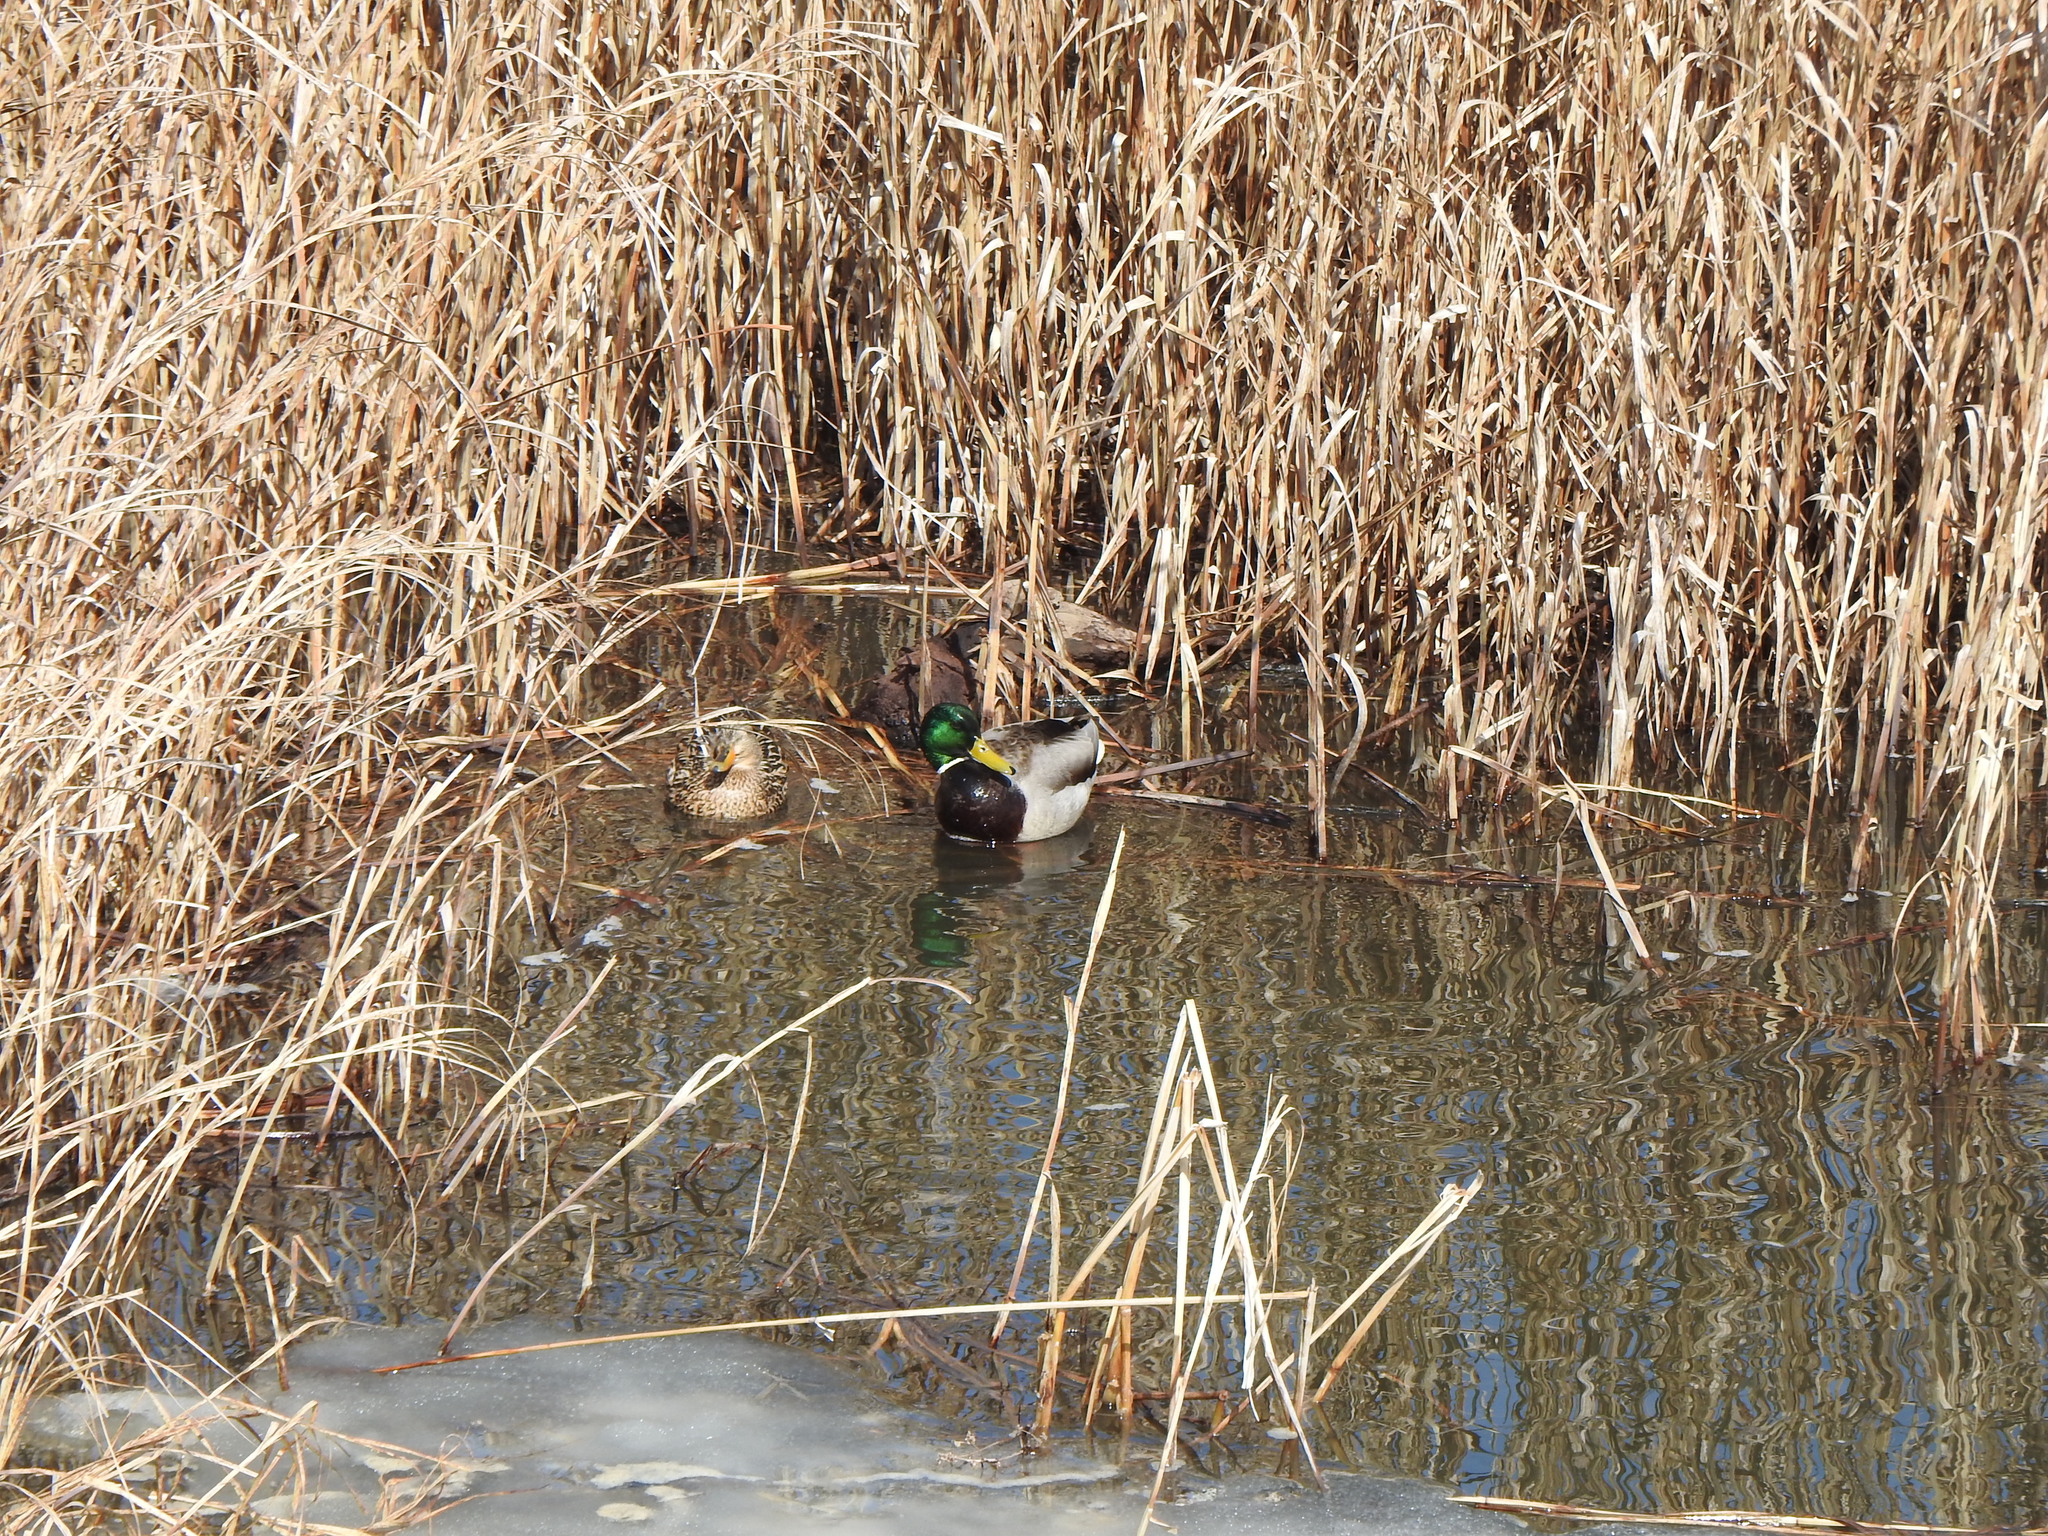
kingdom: Animalia
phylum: Chordata
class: Aves
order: Anseriformes
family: Anatidae
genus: Anas
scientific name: Anas platyrhynchos
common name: Mallard
